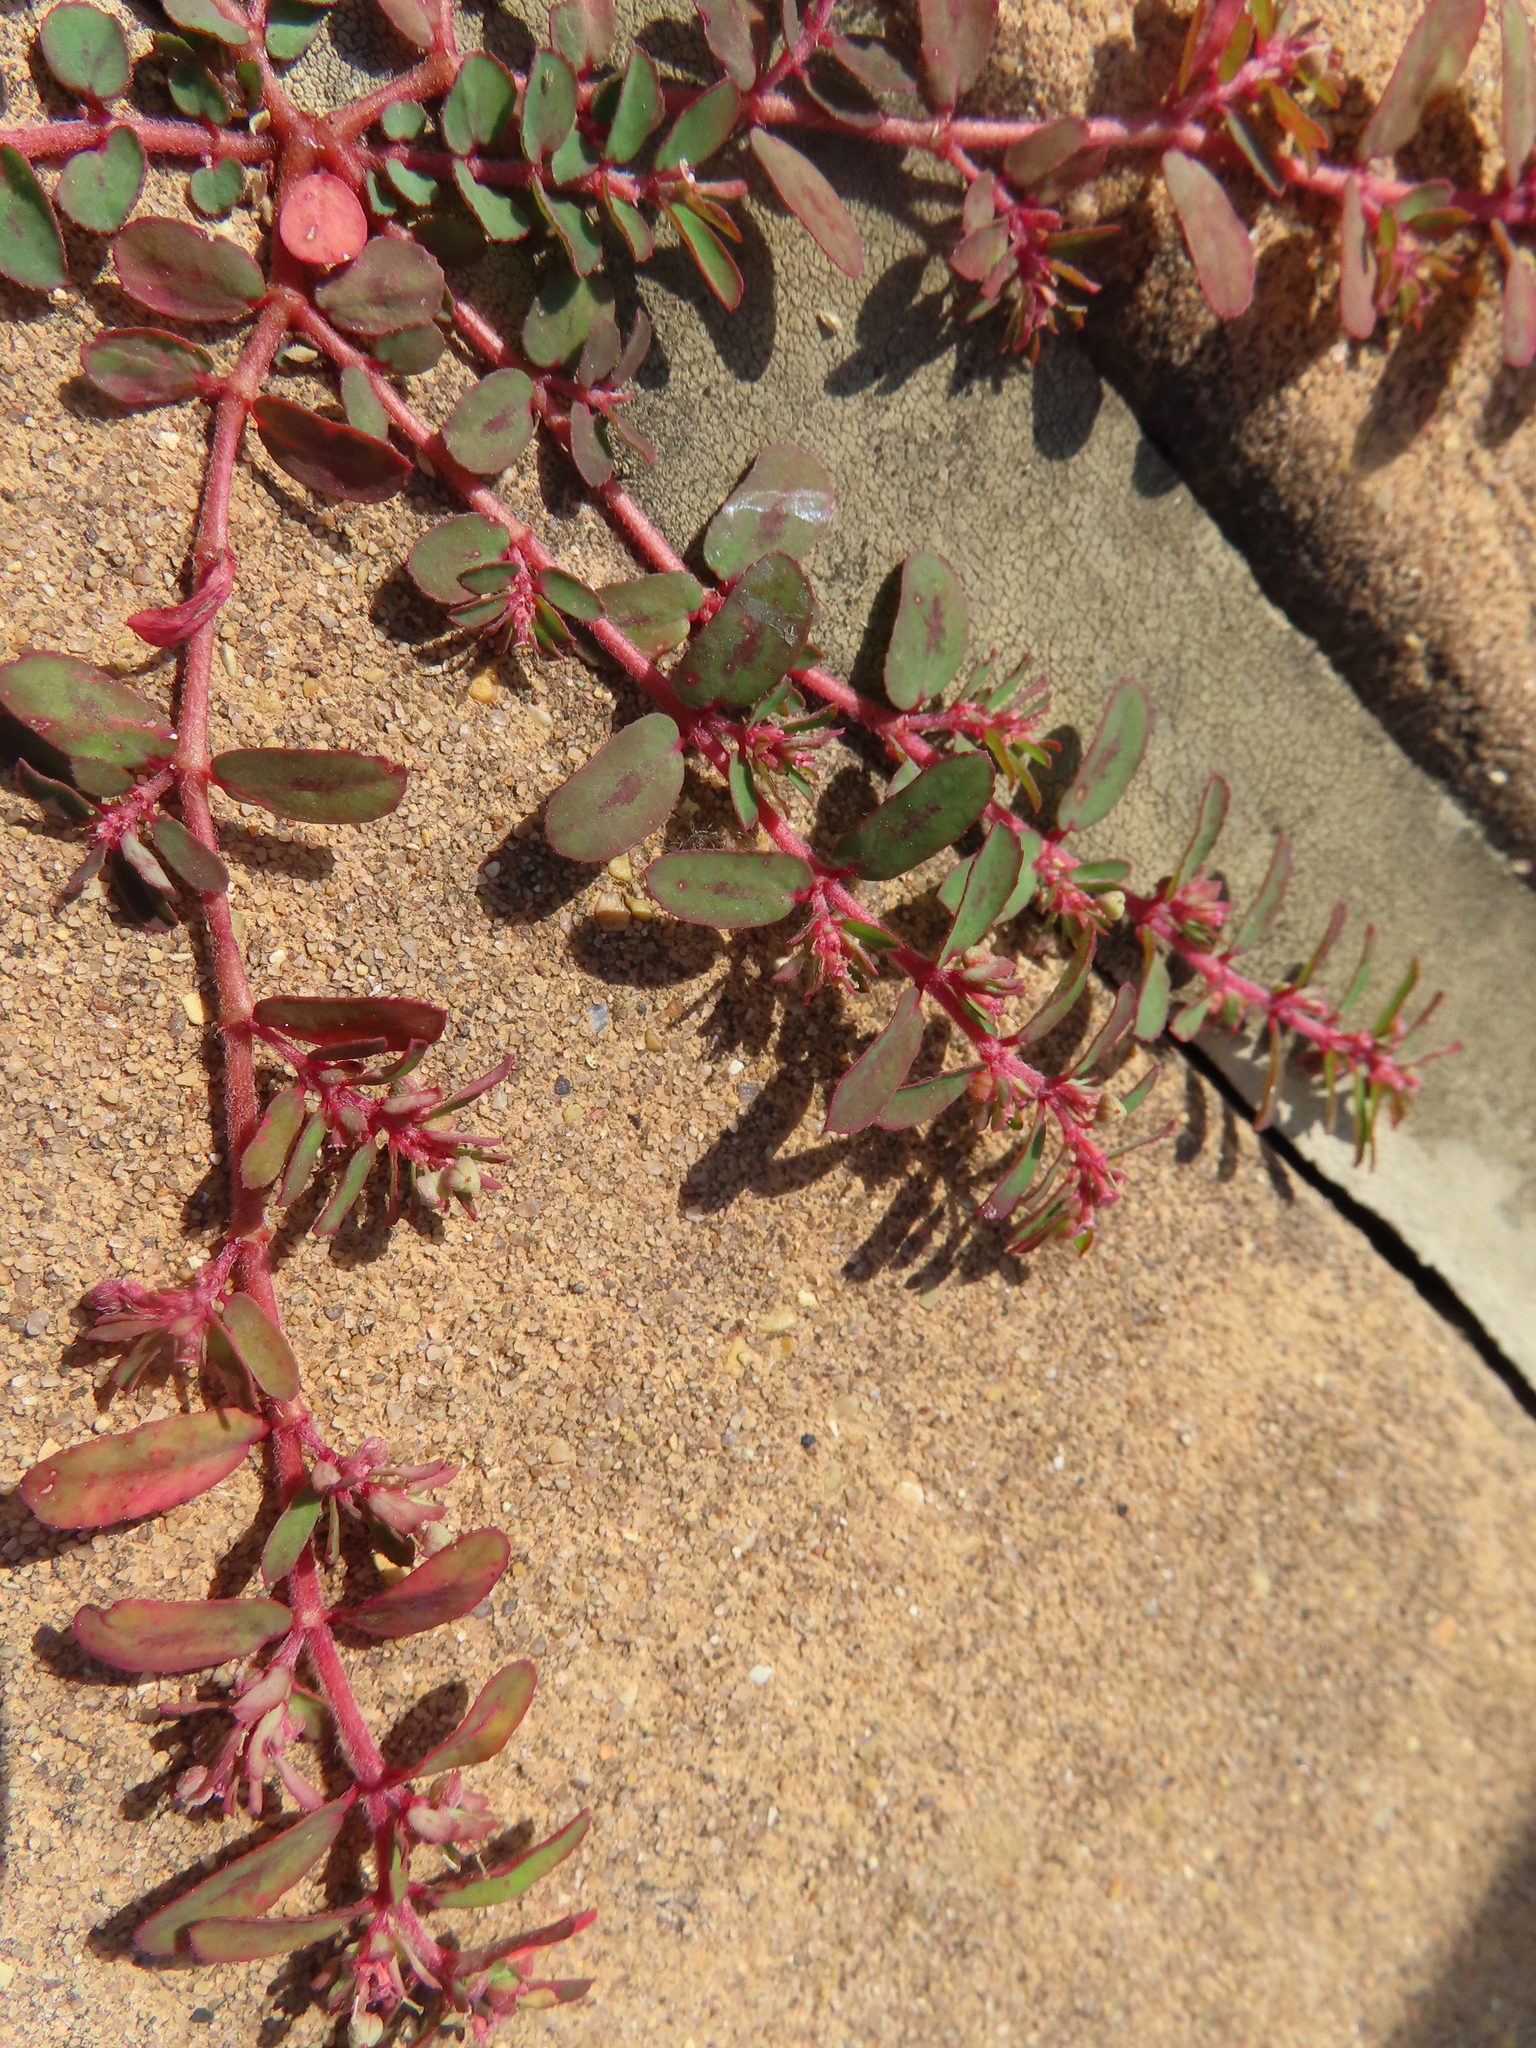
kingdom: Plantae
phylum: Tracheophyta
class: Magnoliopsida
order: Malpighiales
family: Euphorbiaceae
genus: Euphorbia
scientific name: Euphorbia maculata
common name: Spotted spurge
